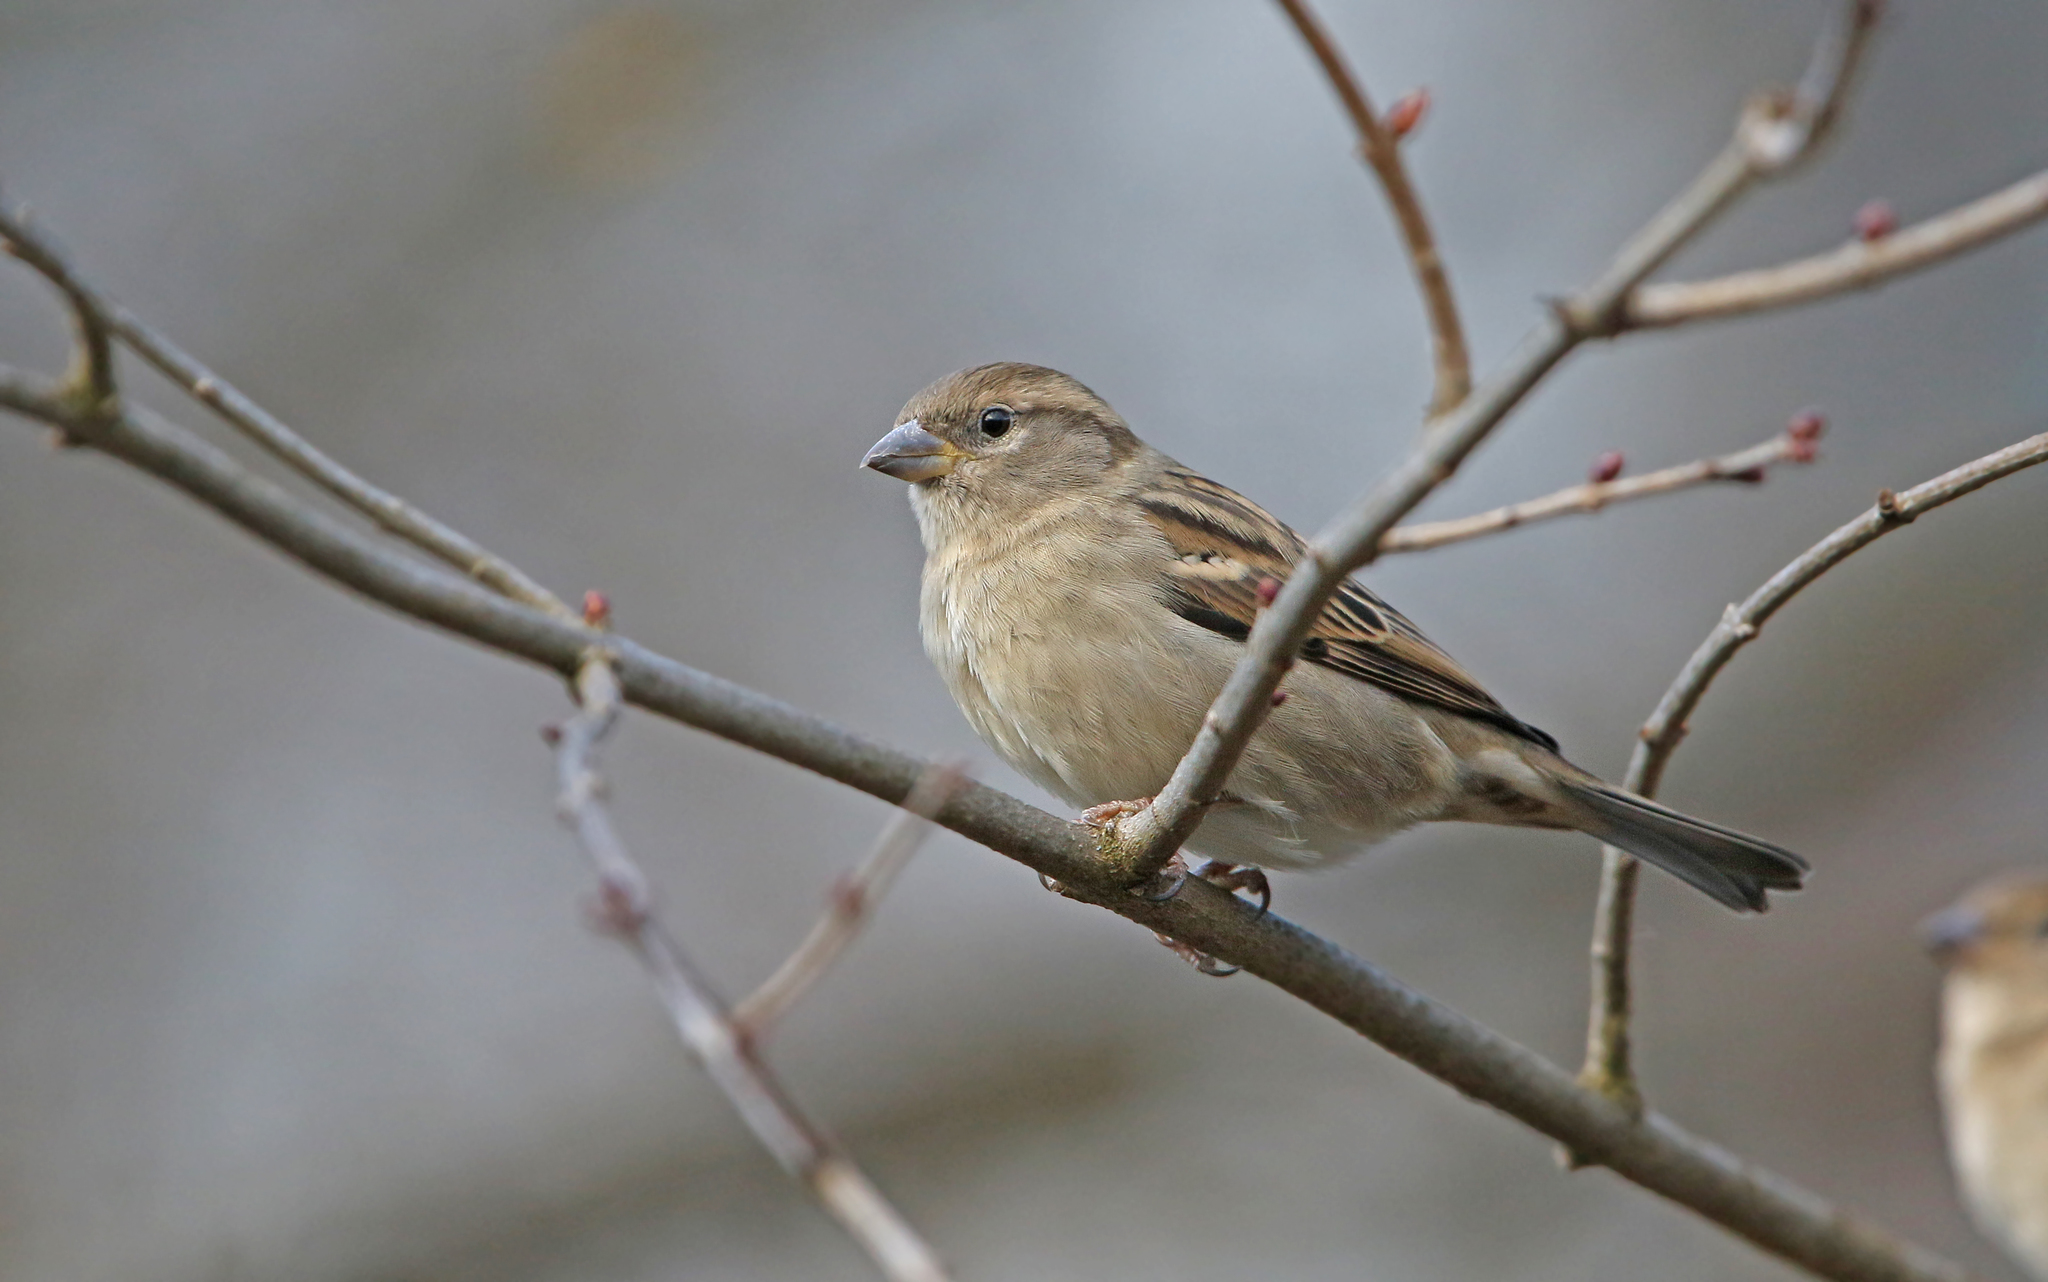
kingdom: Animalia
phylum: Chordata
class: Aves
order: Passeriformes
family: Passeridae
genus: Passer
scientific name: Passer domesticus
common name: House sparrow
